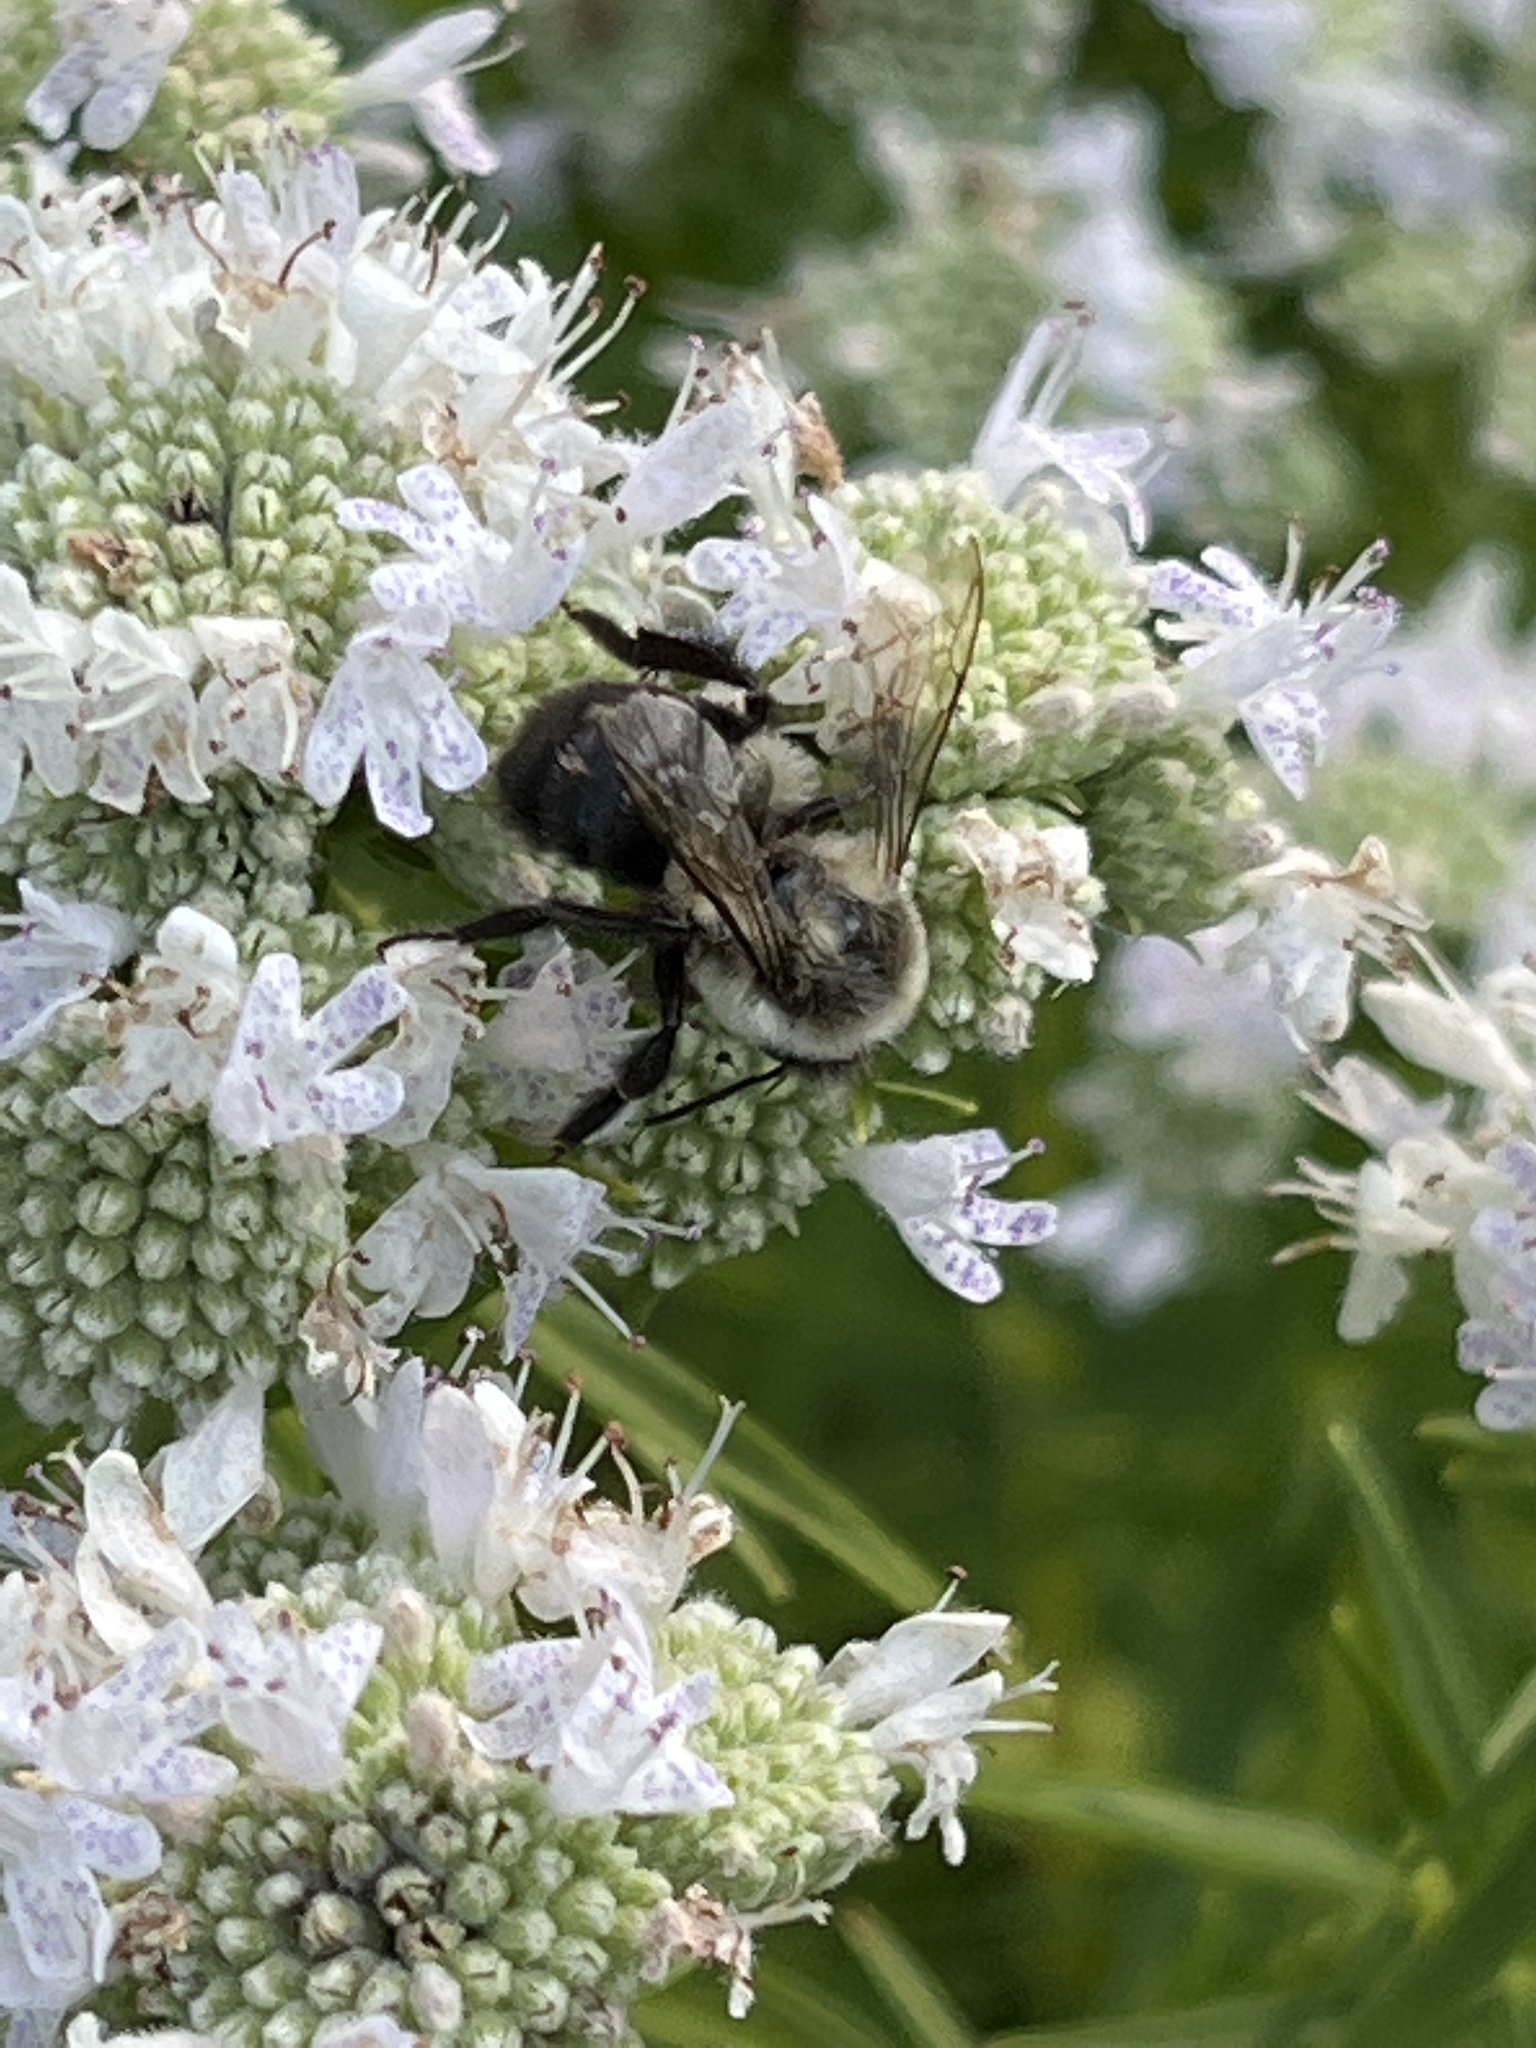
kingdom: Animalia
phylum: Arthropoda
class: Insecta
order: Hymenoptera
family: Apidae
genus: Bombus
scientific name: Bombus impatiens
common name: Common eastern bumble bee
